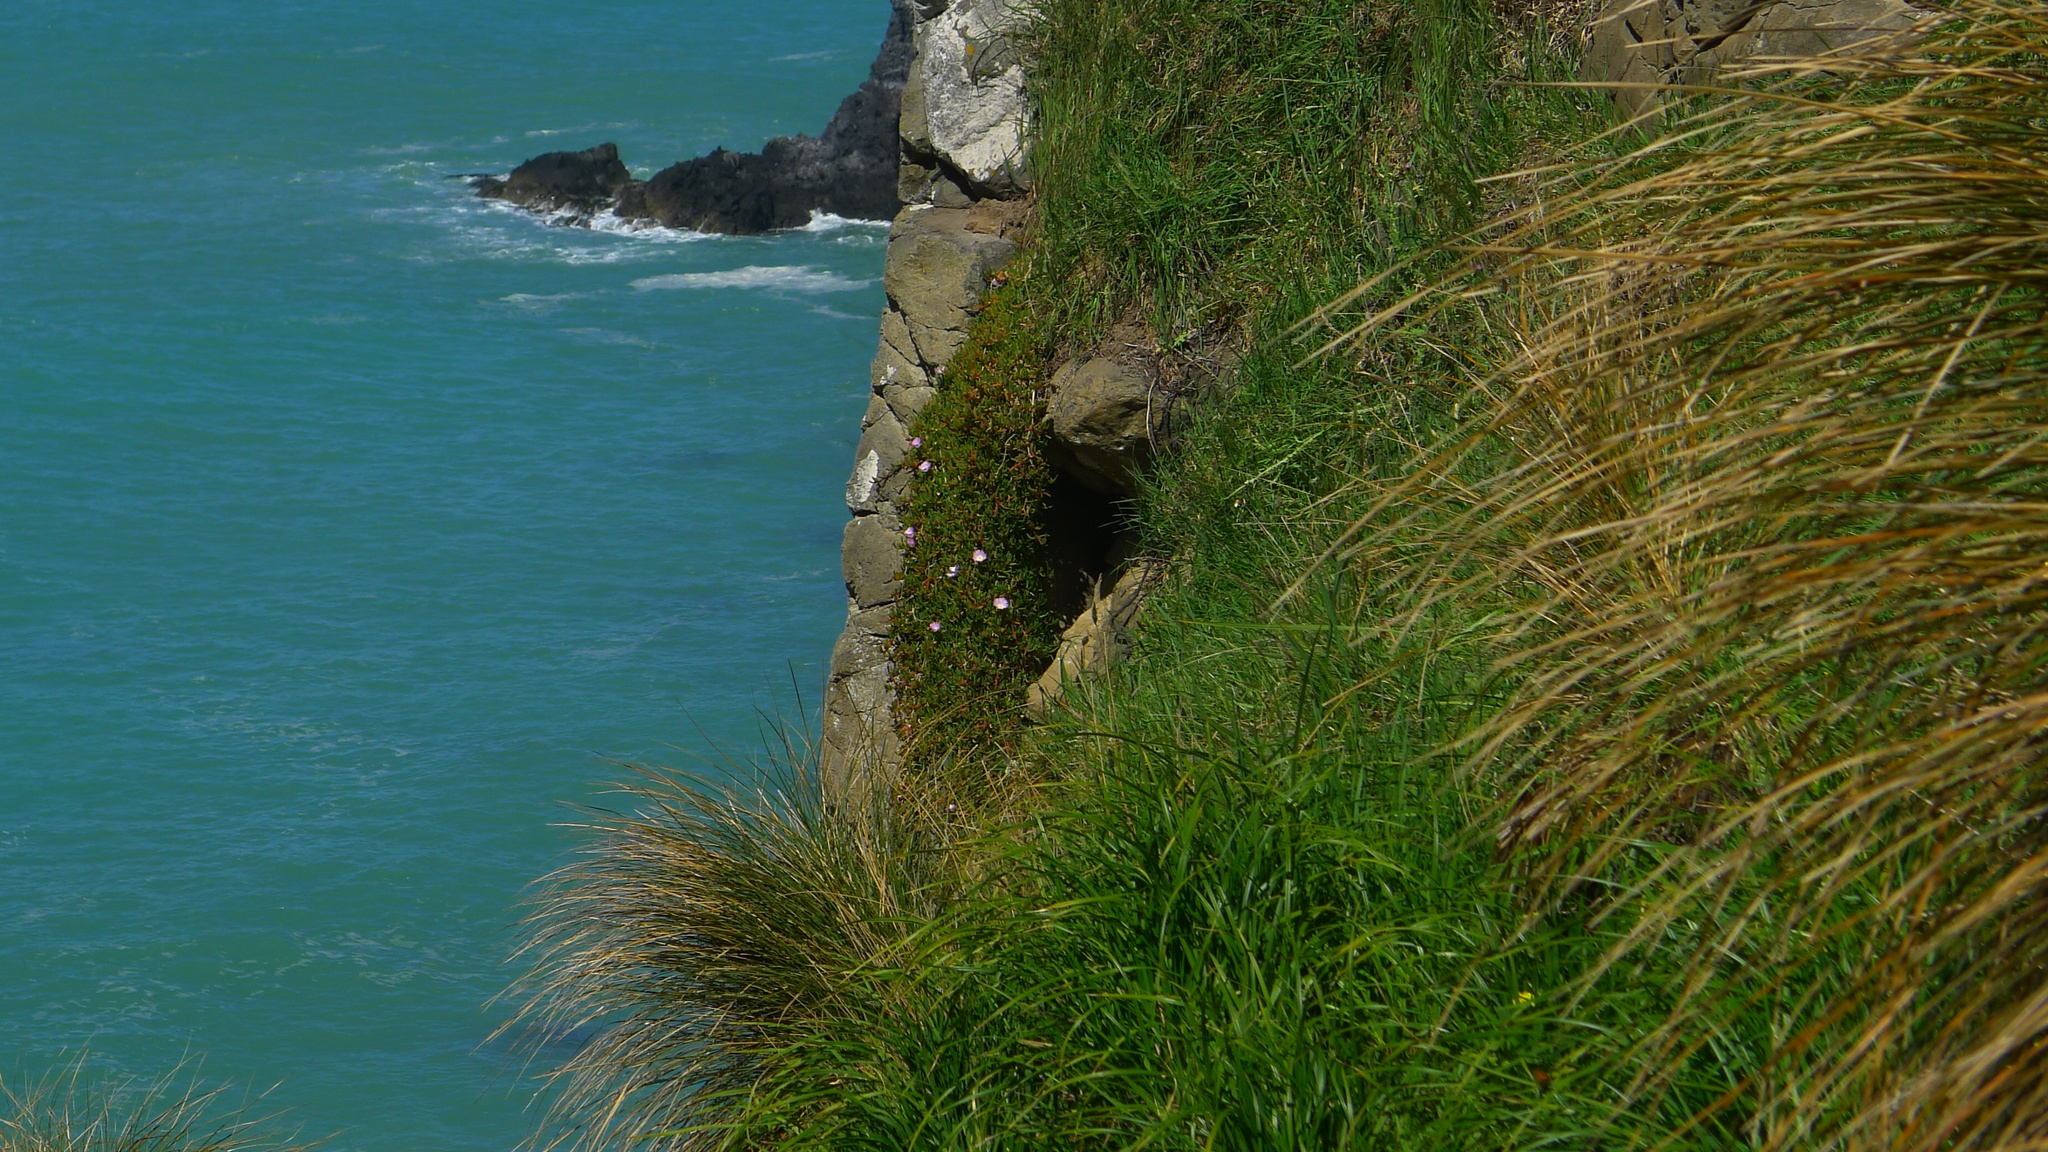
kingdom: Plantae
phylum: Tracheophyta
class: Magnoliopsida
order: Caryophyllales
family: Aizoaceae
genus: Disphyma
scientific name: Disphyma australe
